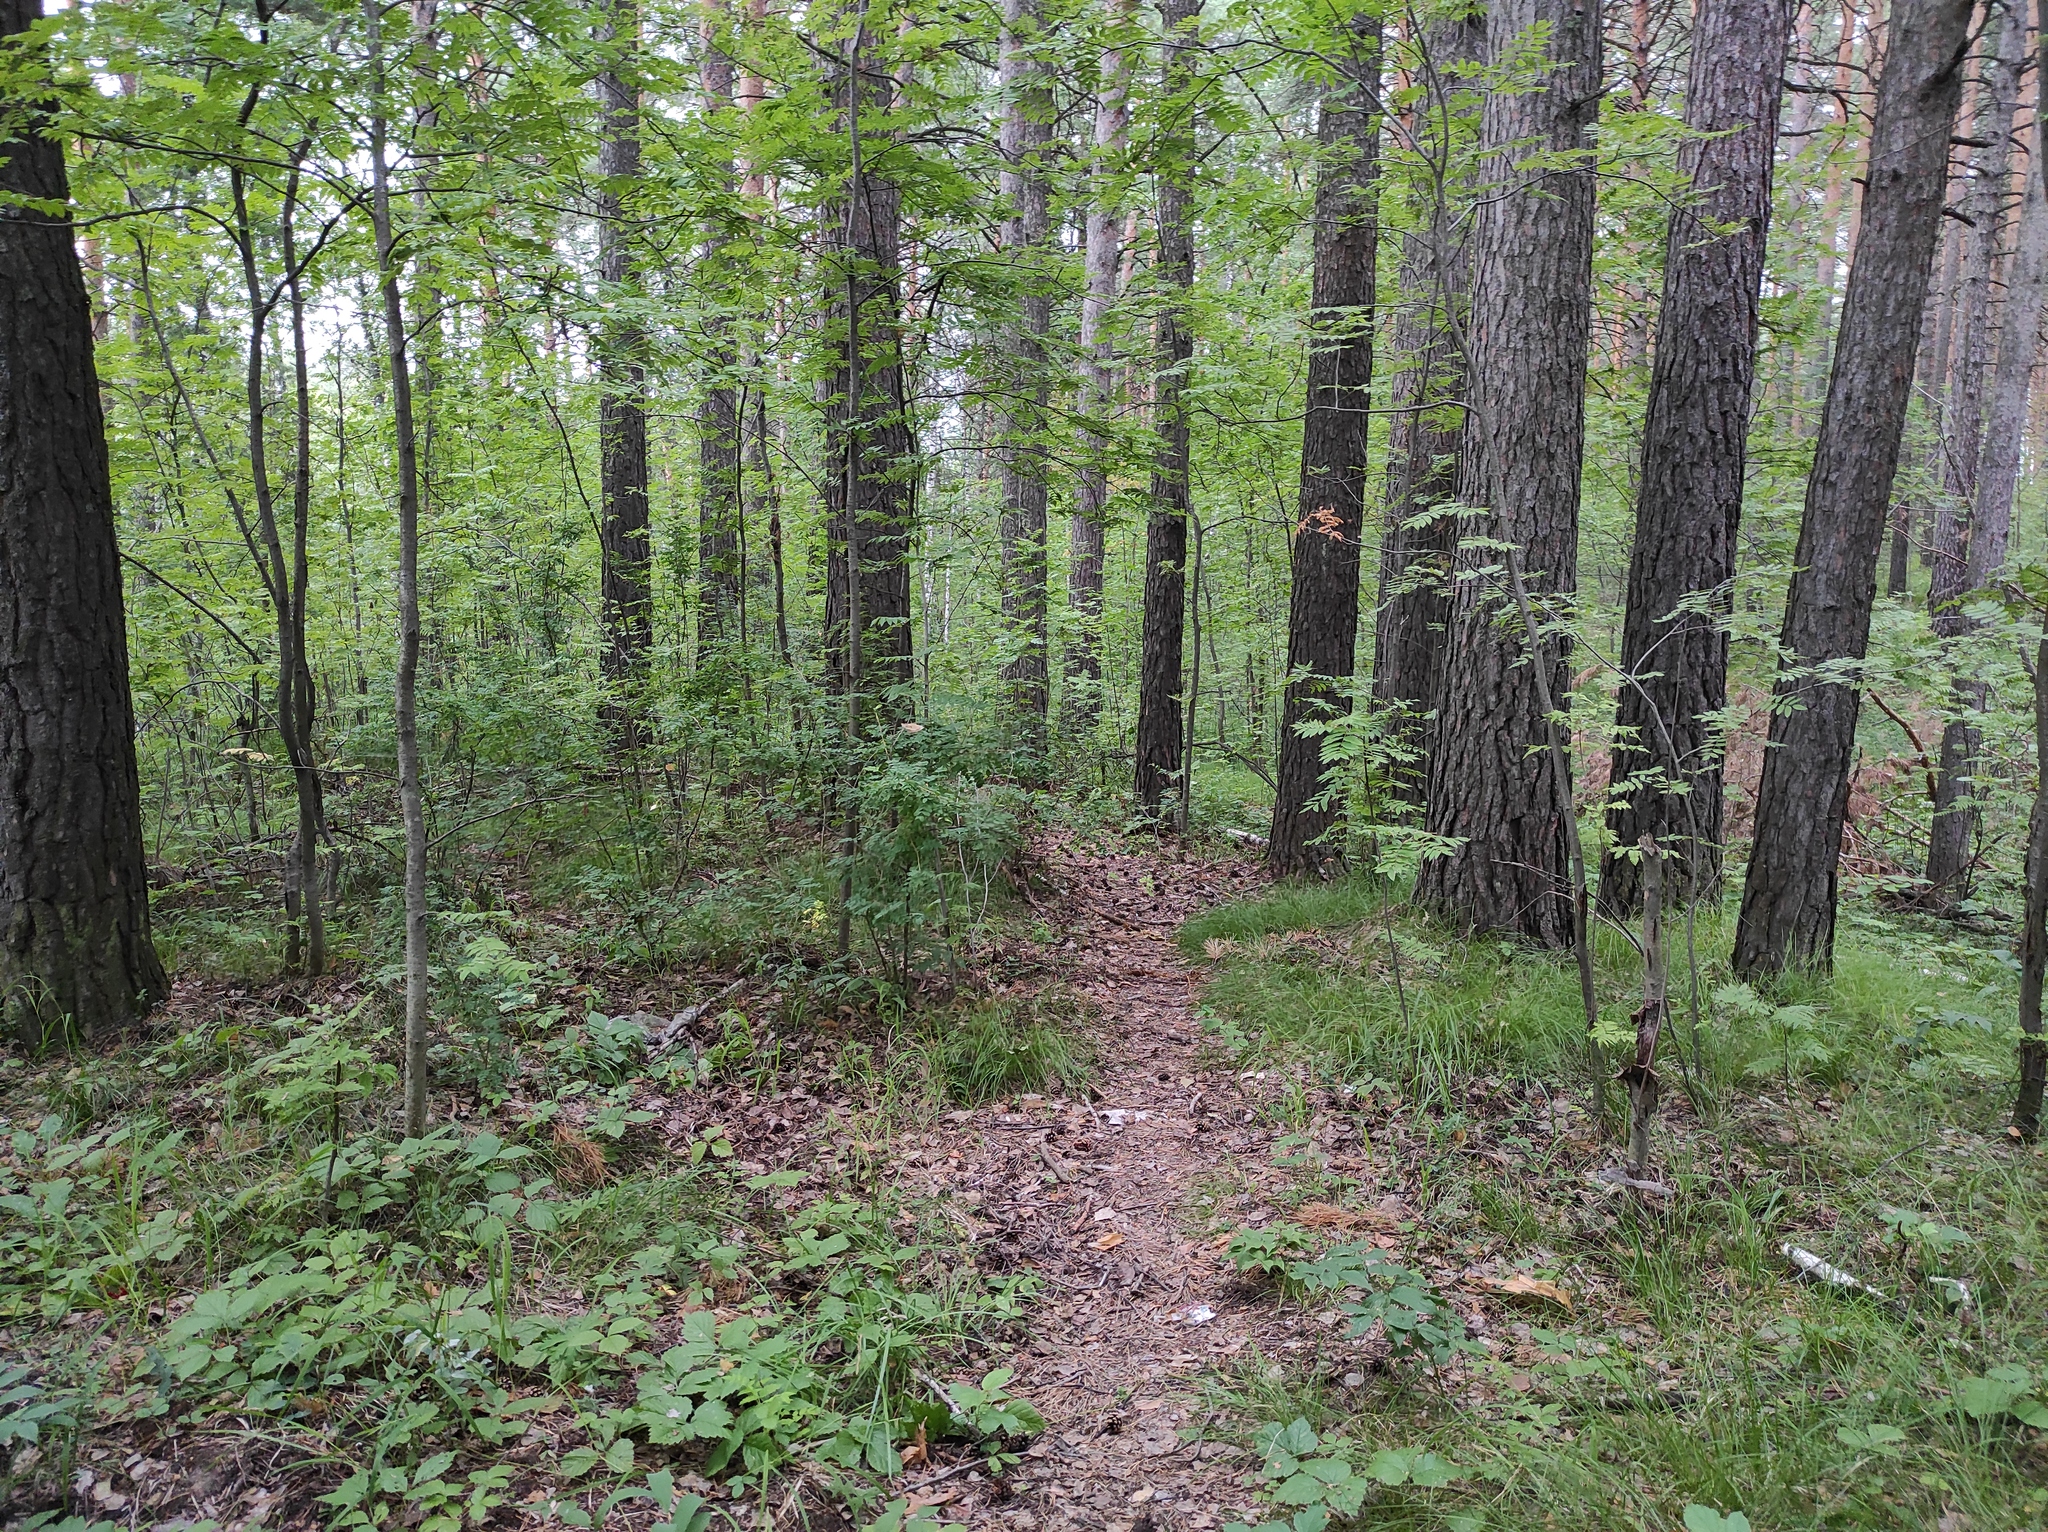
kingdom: Plantae
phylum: Tracheophyta
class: Pinopsida
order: Pinales
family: Pinaceae
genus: Pinus
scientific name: Pinus sylvestris
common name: Scots pine
